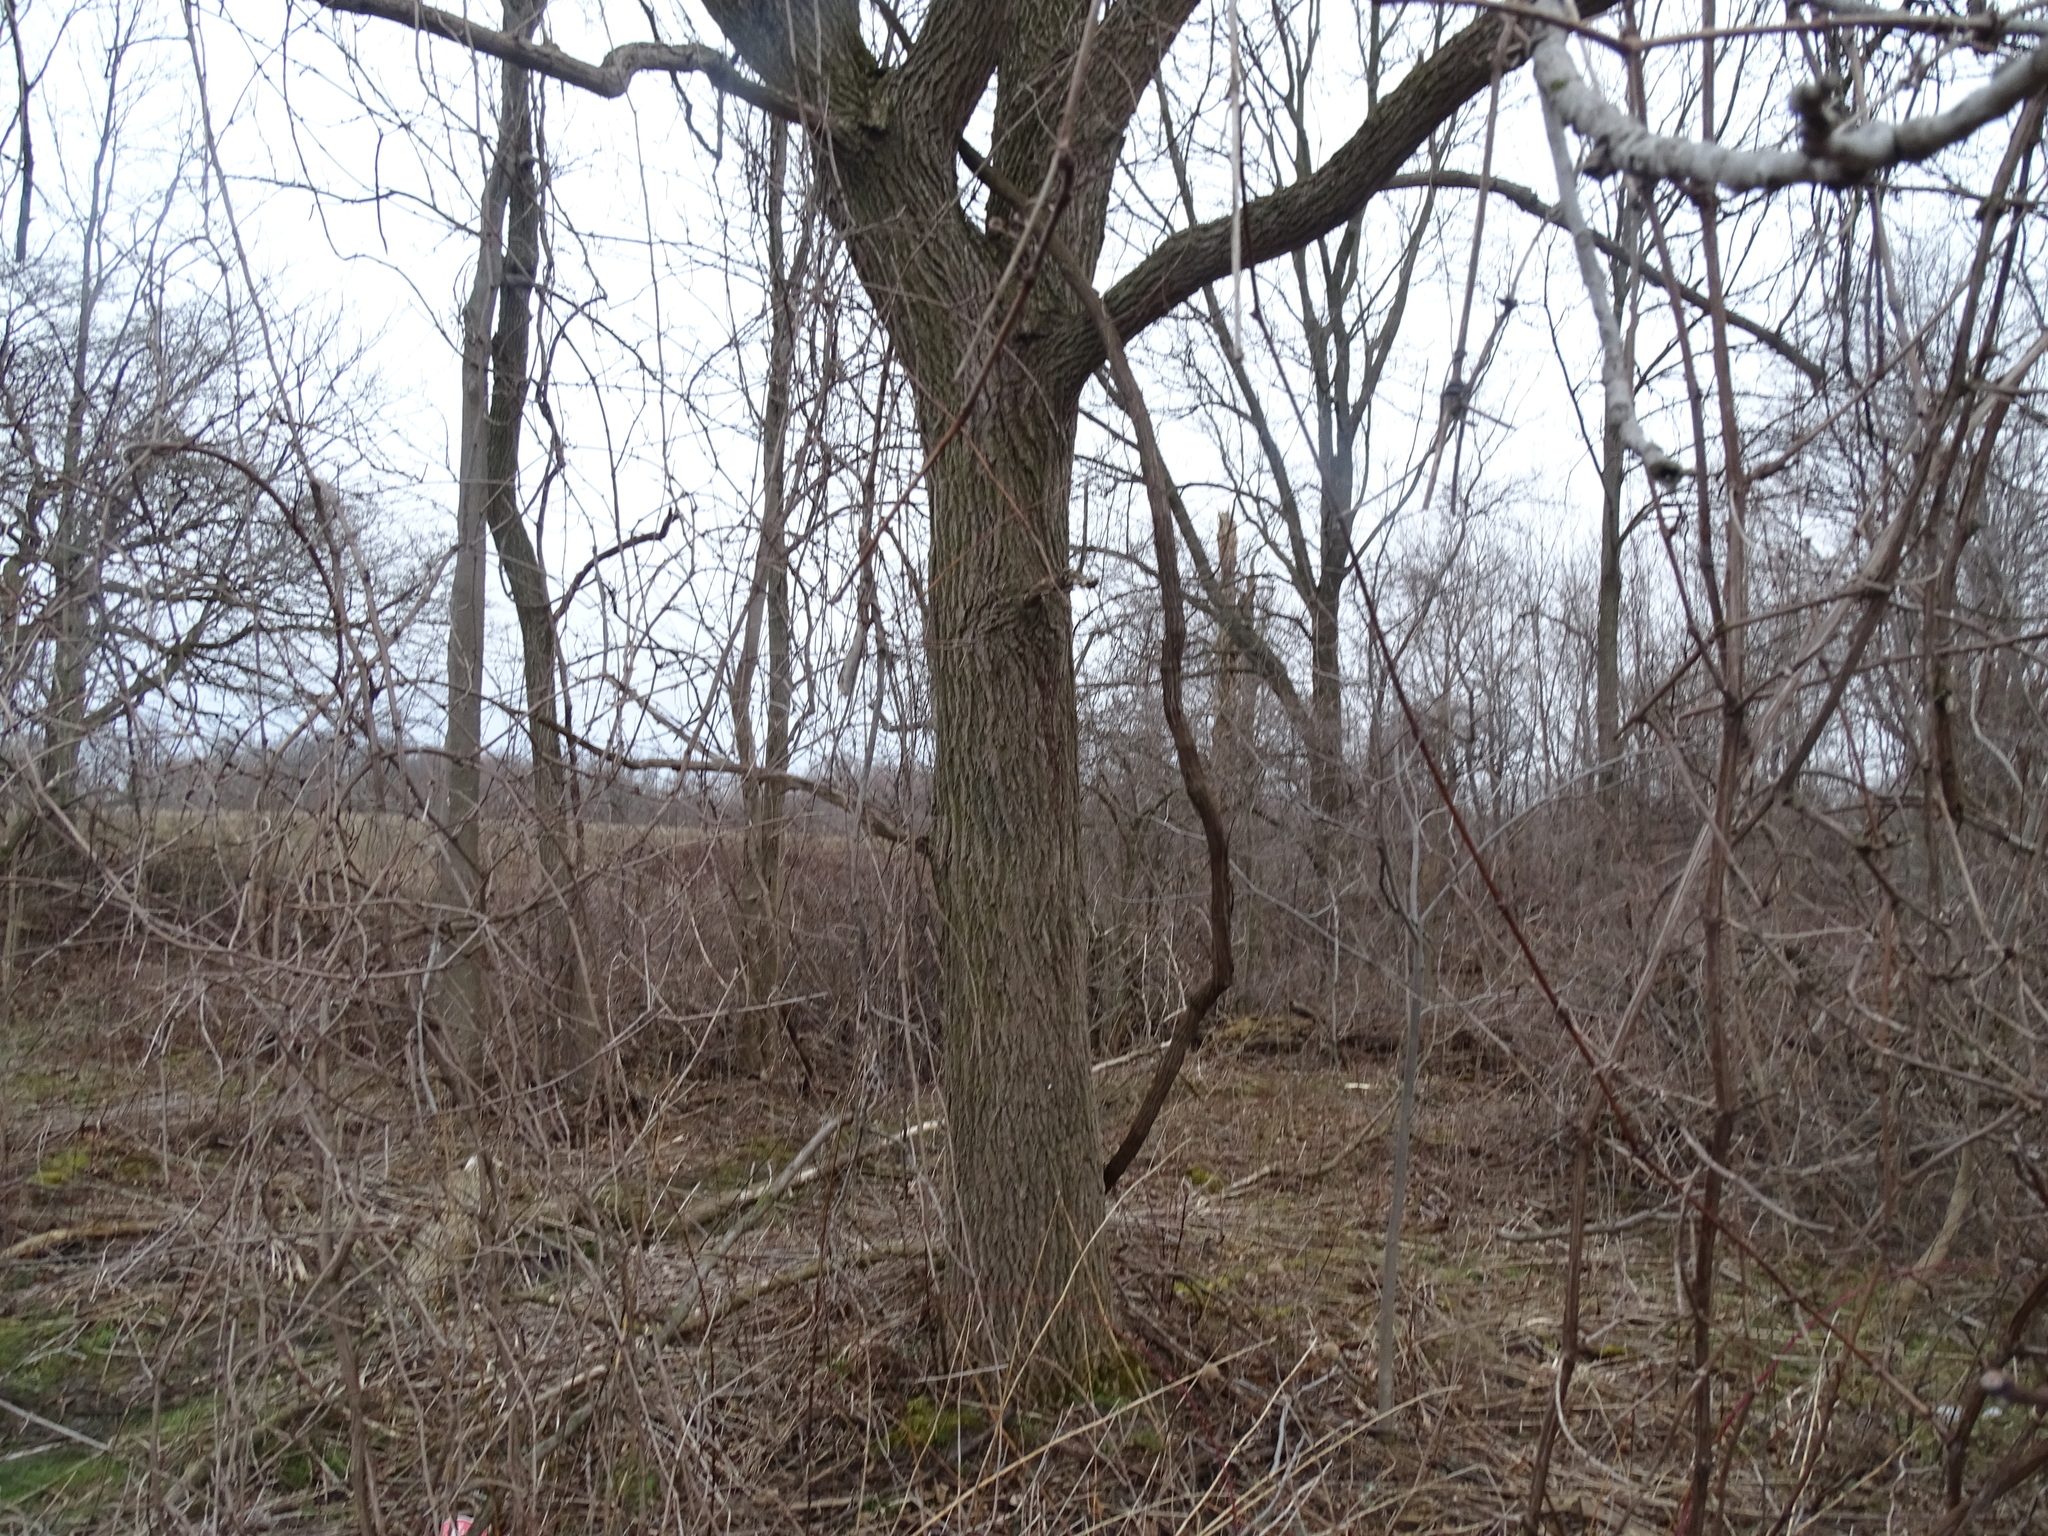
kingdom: Plantae
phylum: Tracheophyta
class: Magnoliopsida
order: Fagales
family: Juglandaceae
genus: Juglans
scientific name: Juglans nigra
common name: Black walnut
